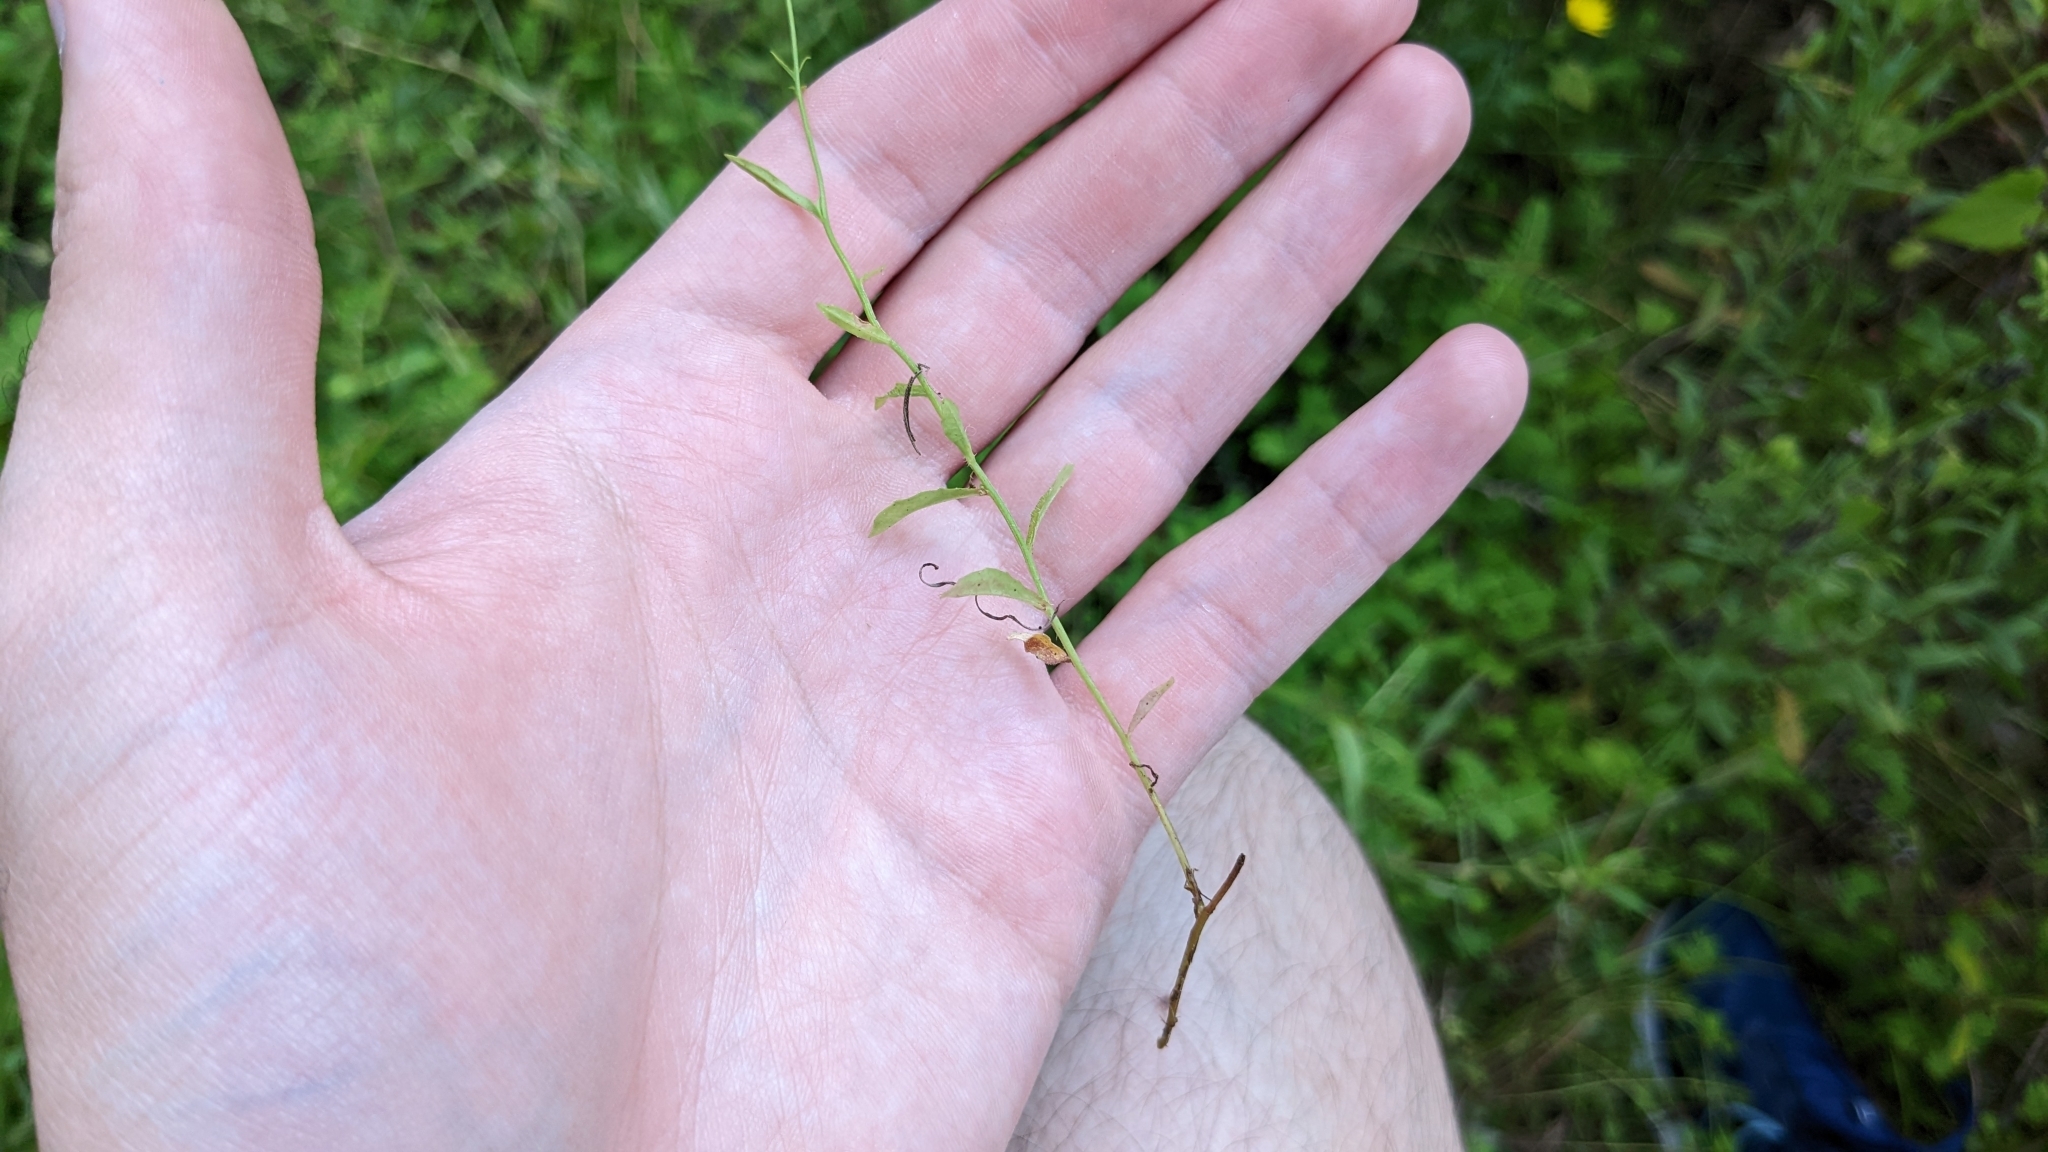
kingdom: Plantae
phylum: Tracheophyta
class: Magnoliopsida
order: Asterales
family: Campanulaceae
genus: Wahlenbergia
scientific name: Wahlenbergia marginata
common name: Southern rockbell
